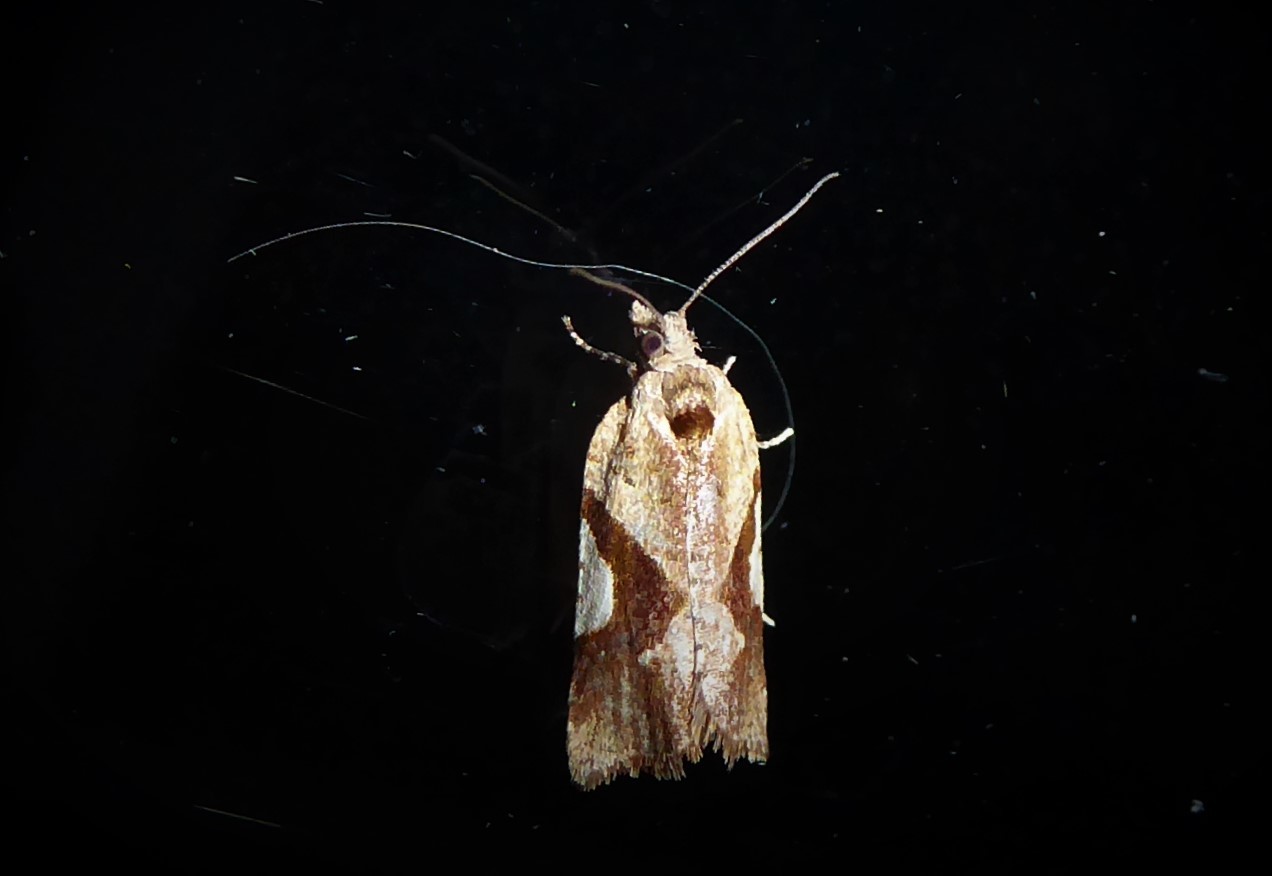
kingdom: Animalia
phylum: Arthropoda
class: Insecta
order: Lepidoptera
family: Tortricidae
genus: Pyrgotis
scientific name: Pyrgotis plagiatana
